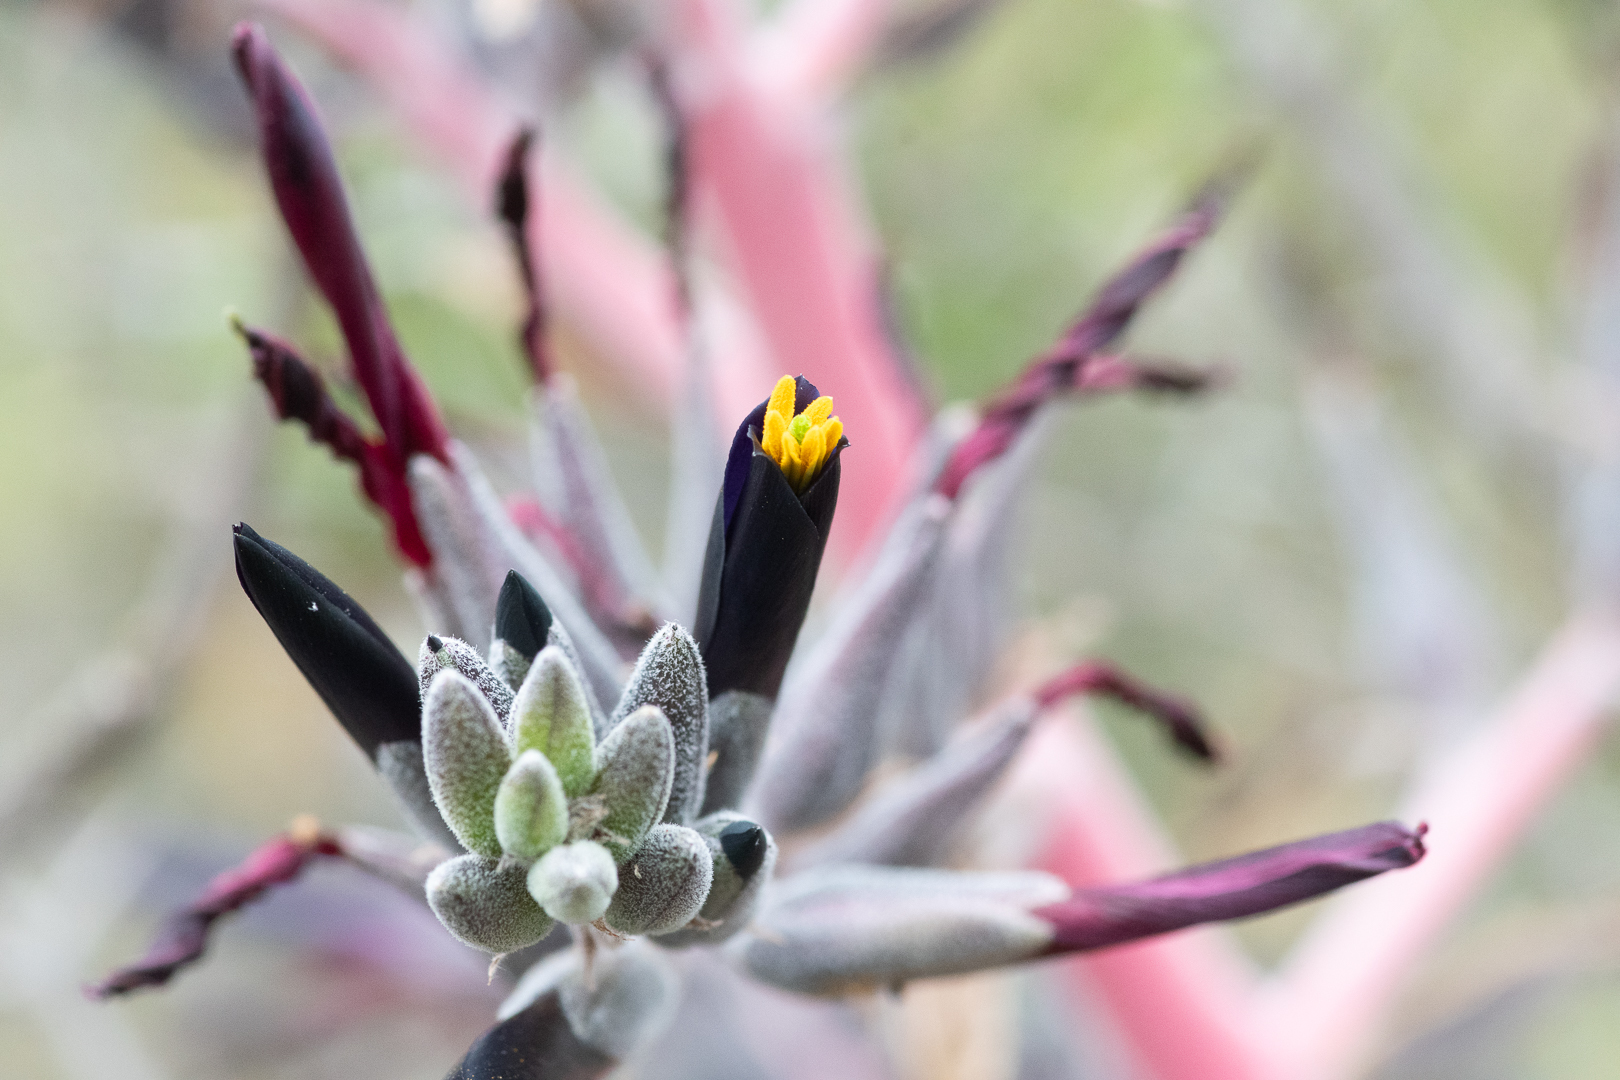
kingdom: Plantae
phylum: Tracheophyta
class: Liliopsida
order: Poales
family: Bromeliaceae
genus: Puya
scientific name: Puya coerulea
